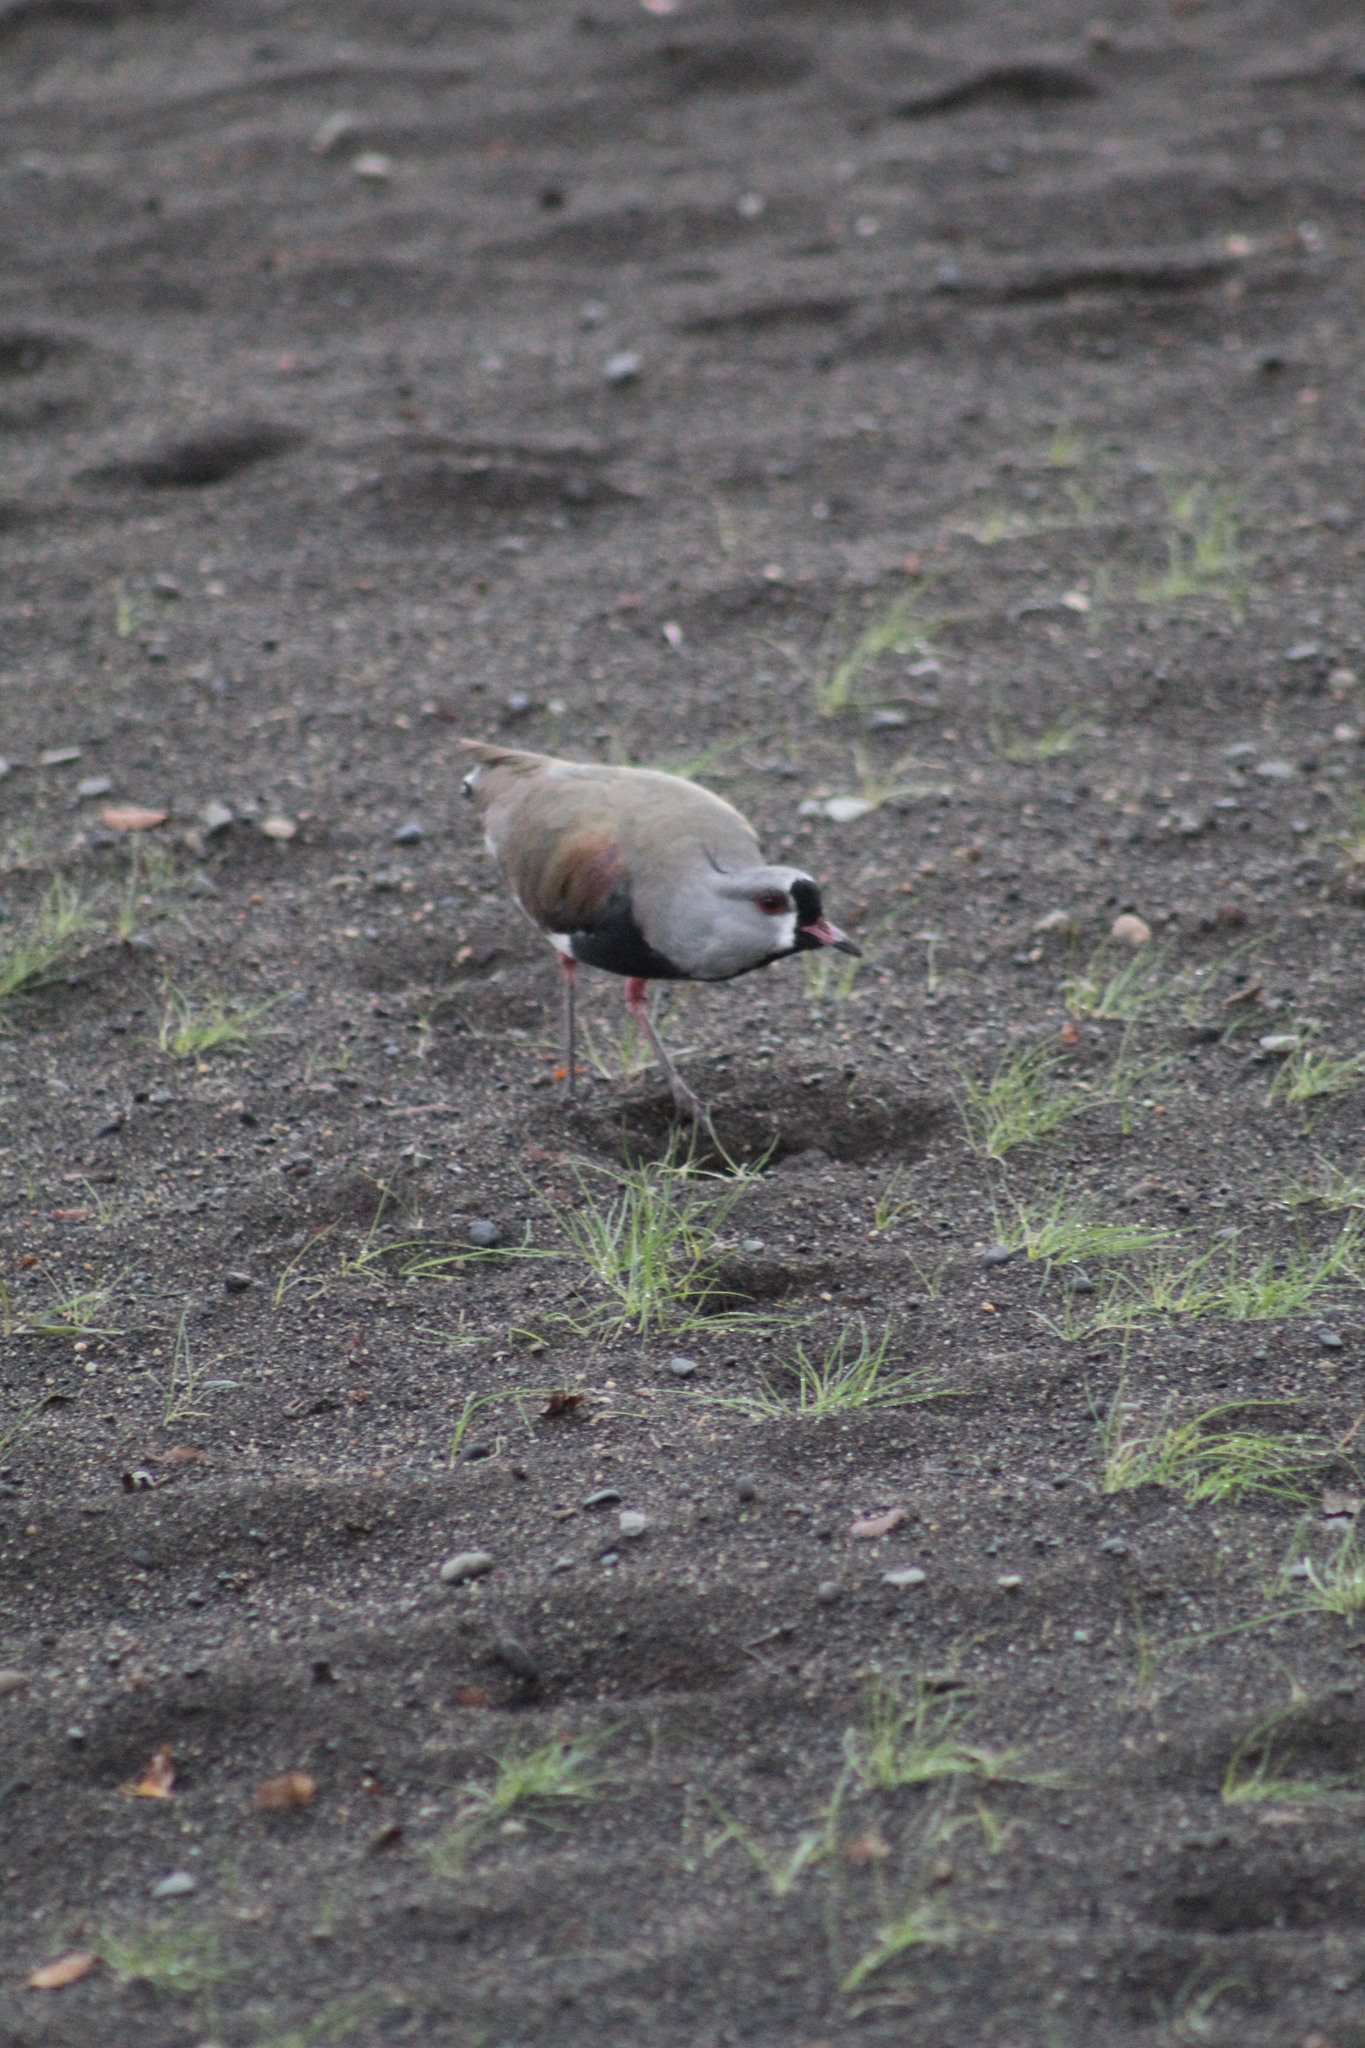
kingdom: Animalia
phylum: Chordata
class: Aves
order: Charadriiformes
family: Charadriidae
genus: Vanellus
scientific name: Vanellus chilensis
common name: Southern lapwing
